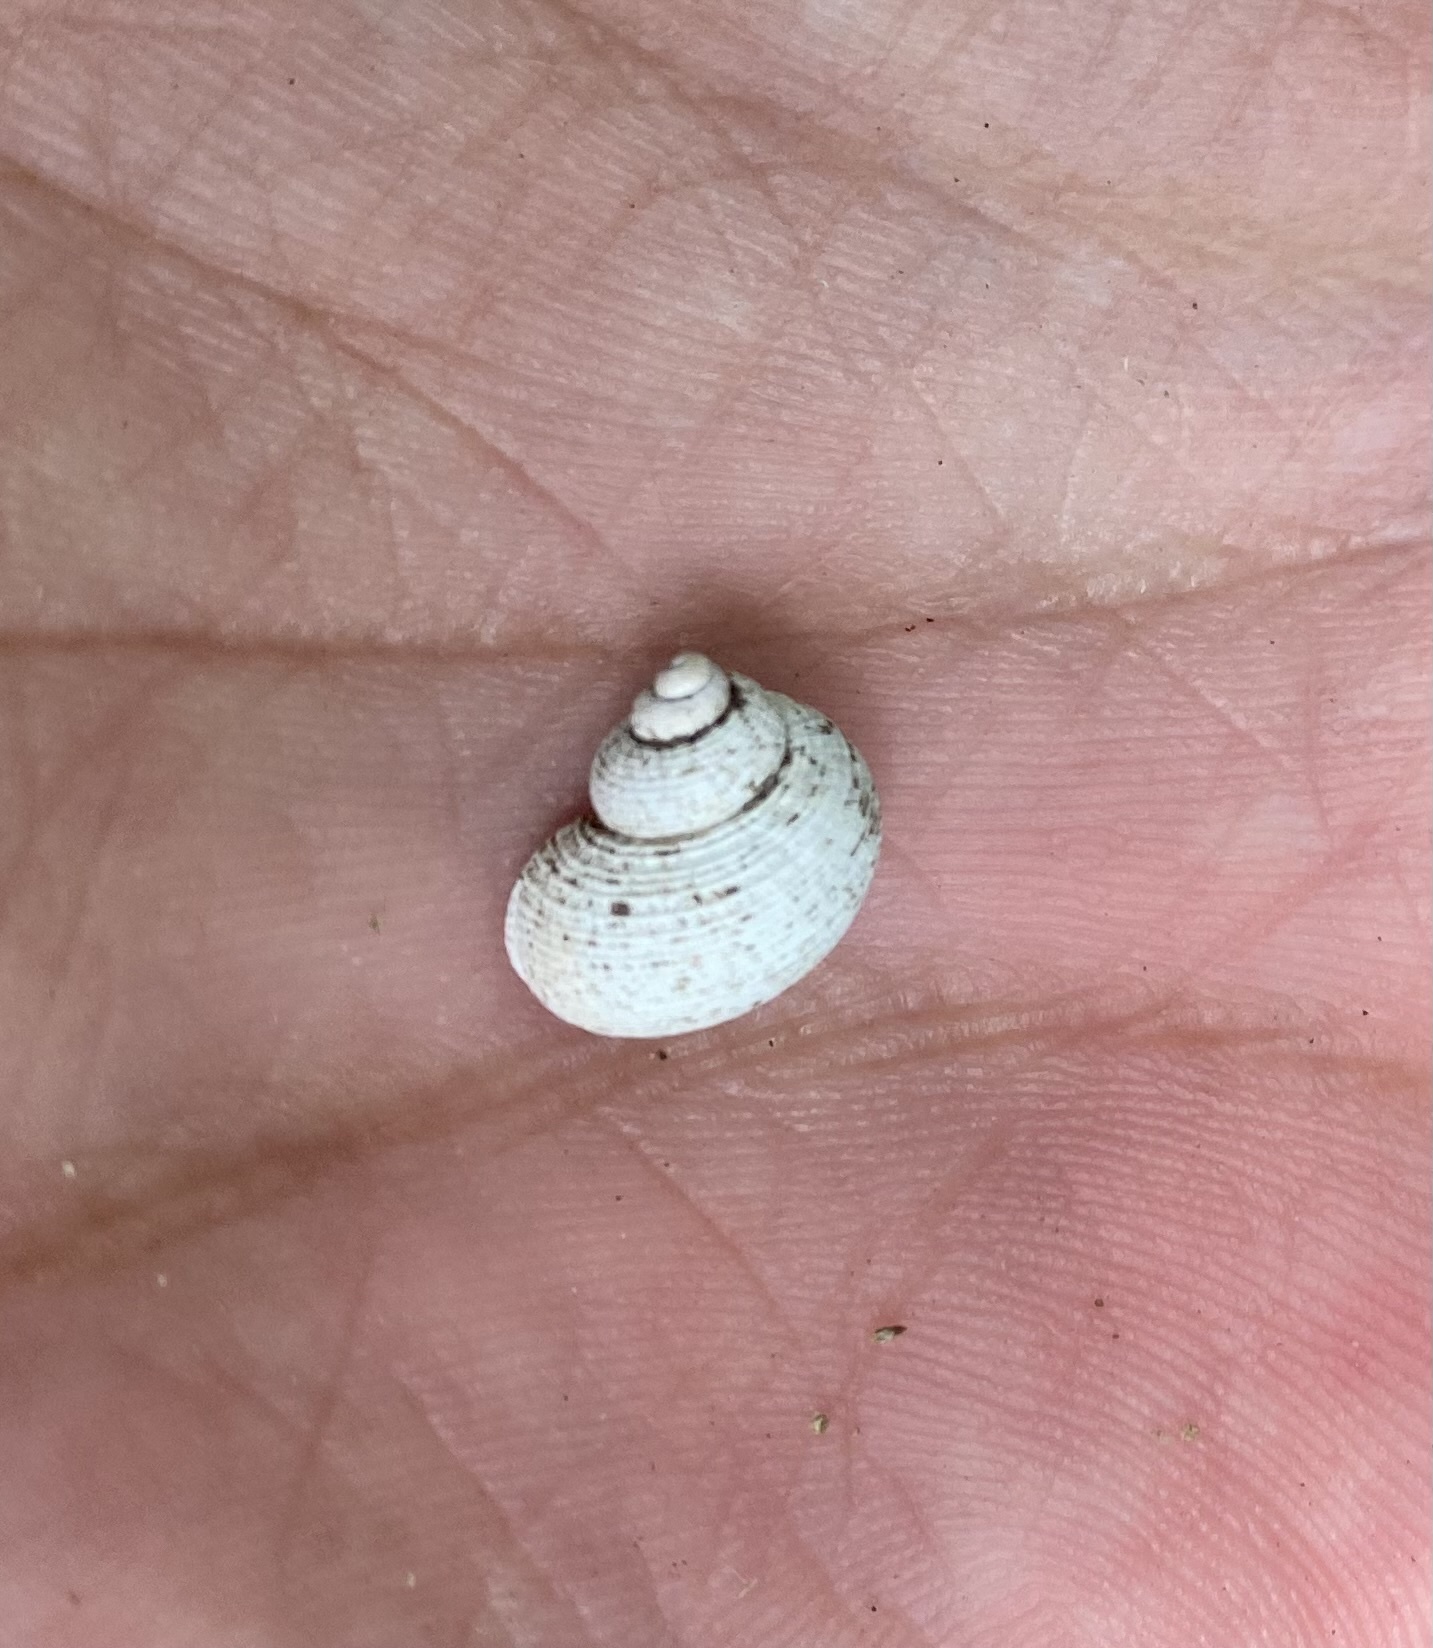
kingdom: Animalia
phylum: Mollusca
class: Gastropoda
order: Littorinimorpha
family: Pomatiidae
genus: Pomatias
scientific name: Pomatias rivularis
